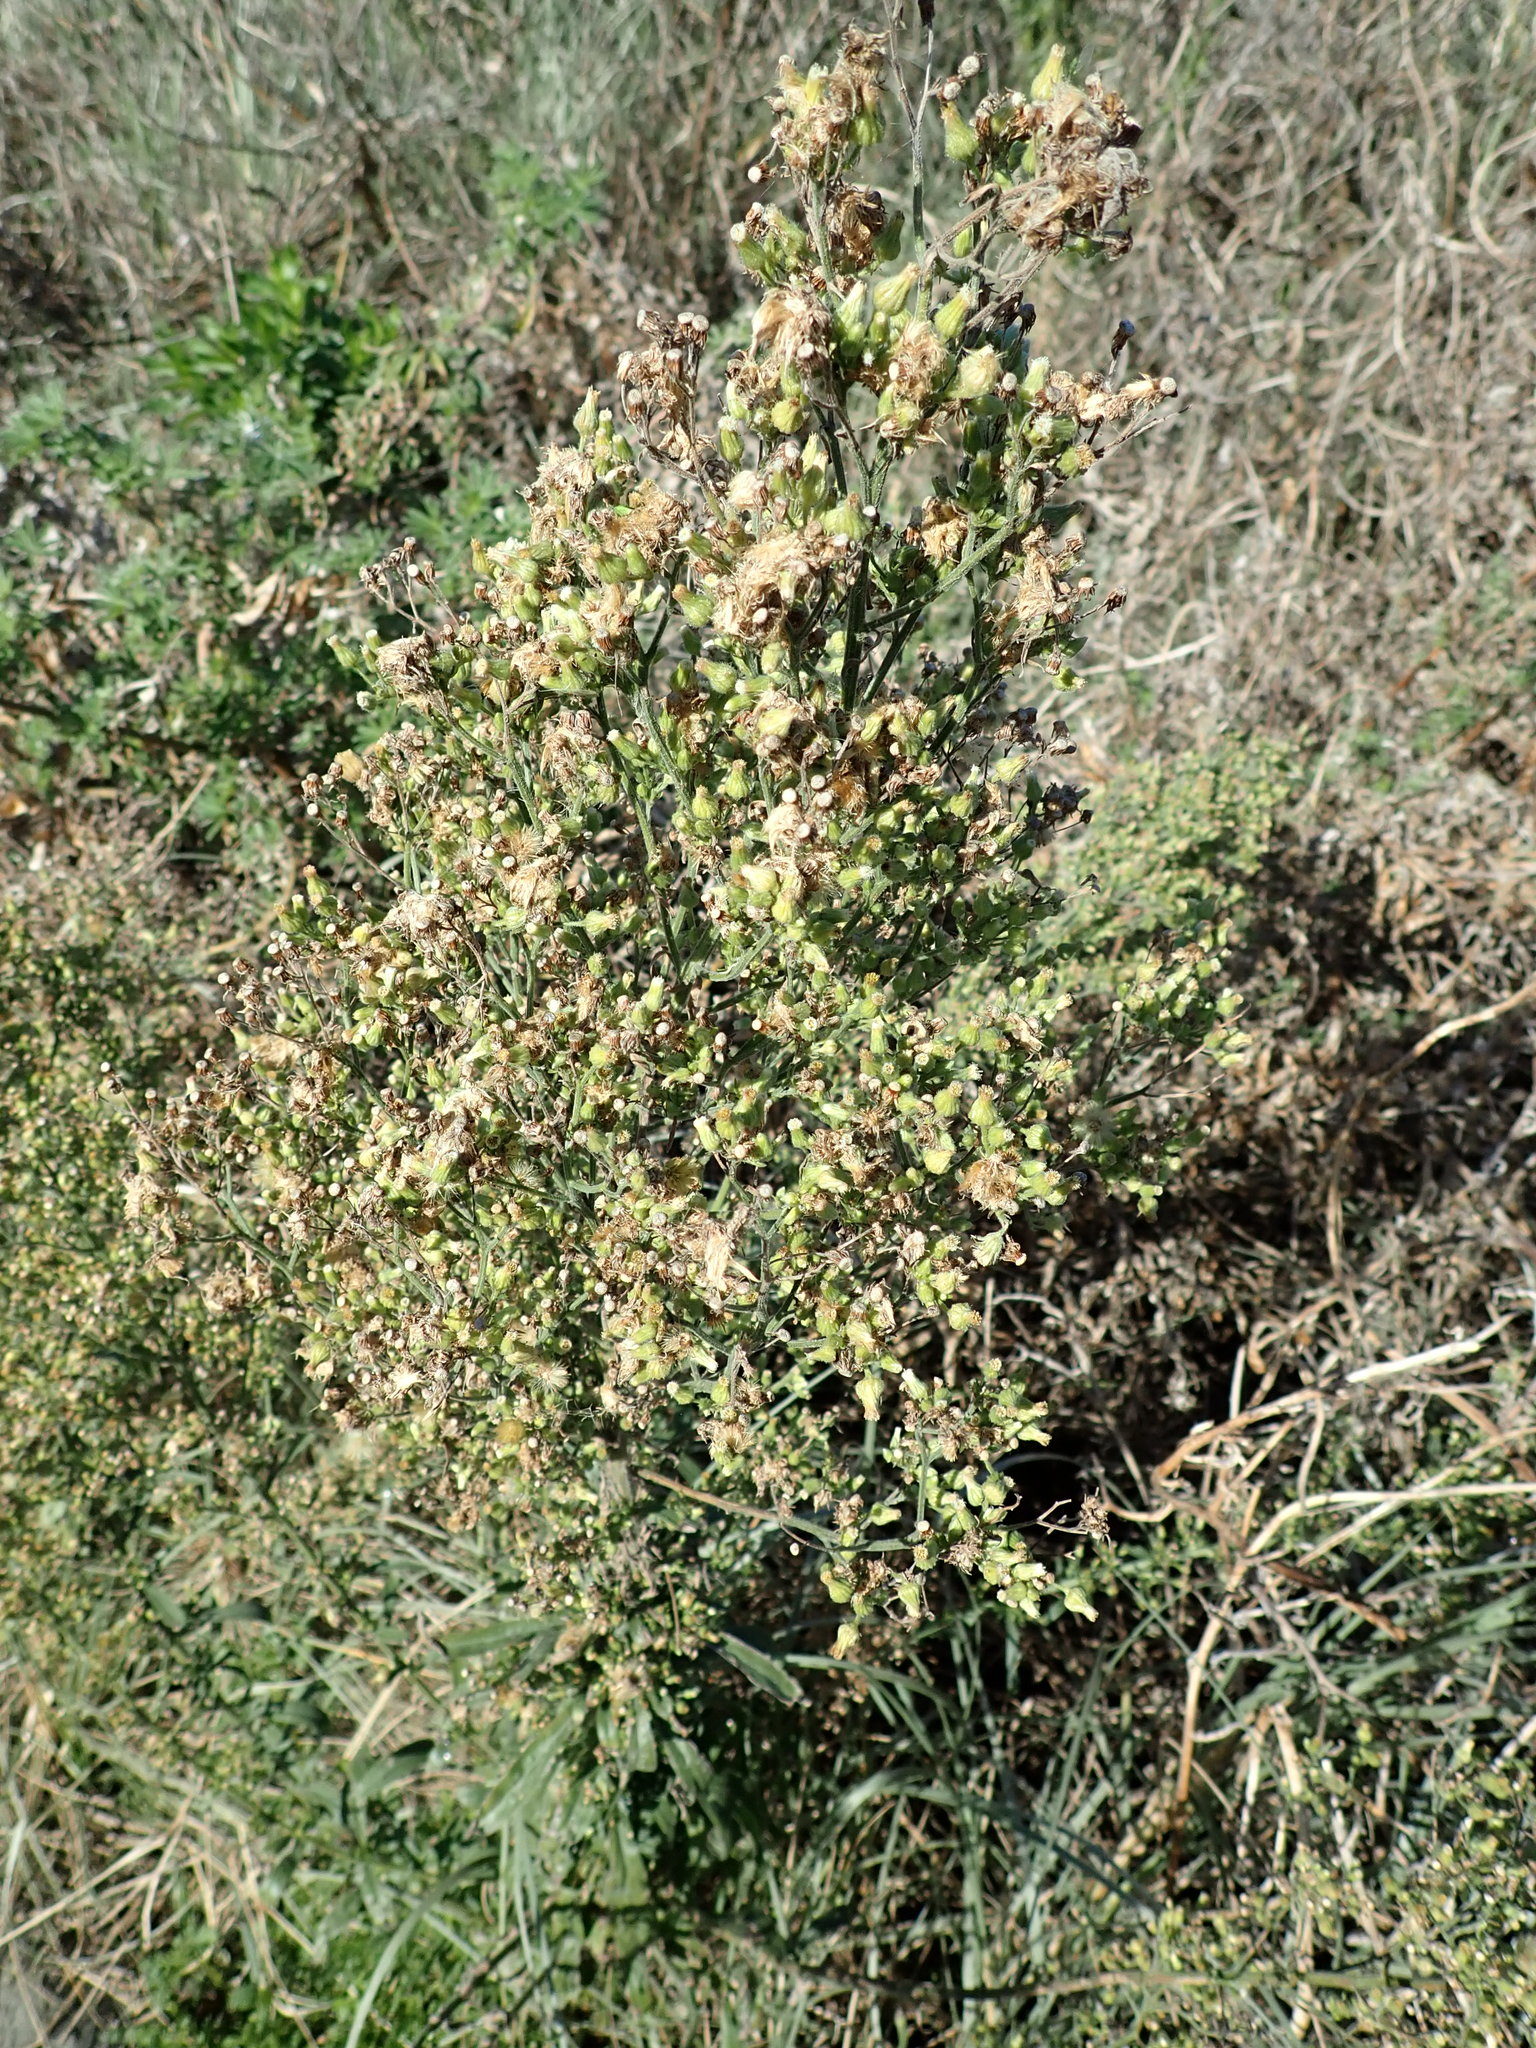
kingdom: Plantae
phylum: Tracheophyta
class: Magnoliopsida
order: Asterales
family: Asteraceae
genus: Erigeron
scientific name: Erigeron sumatrensis
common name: Daisy
